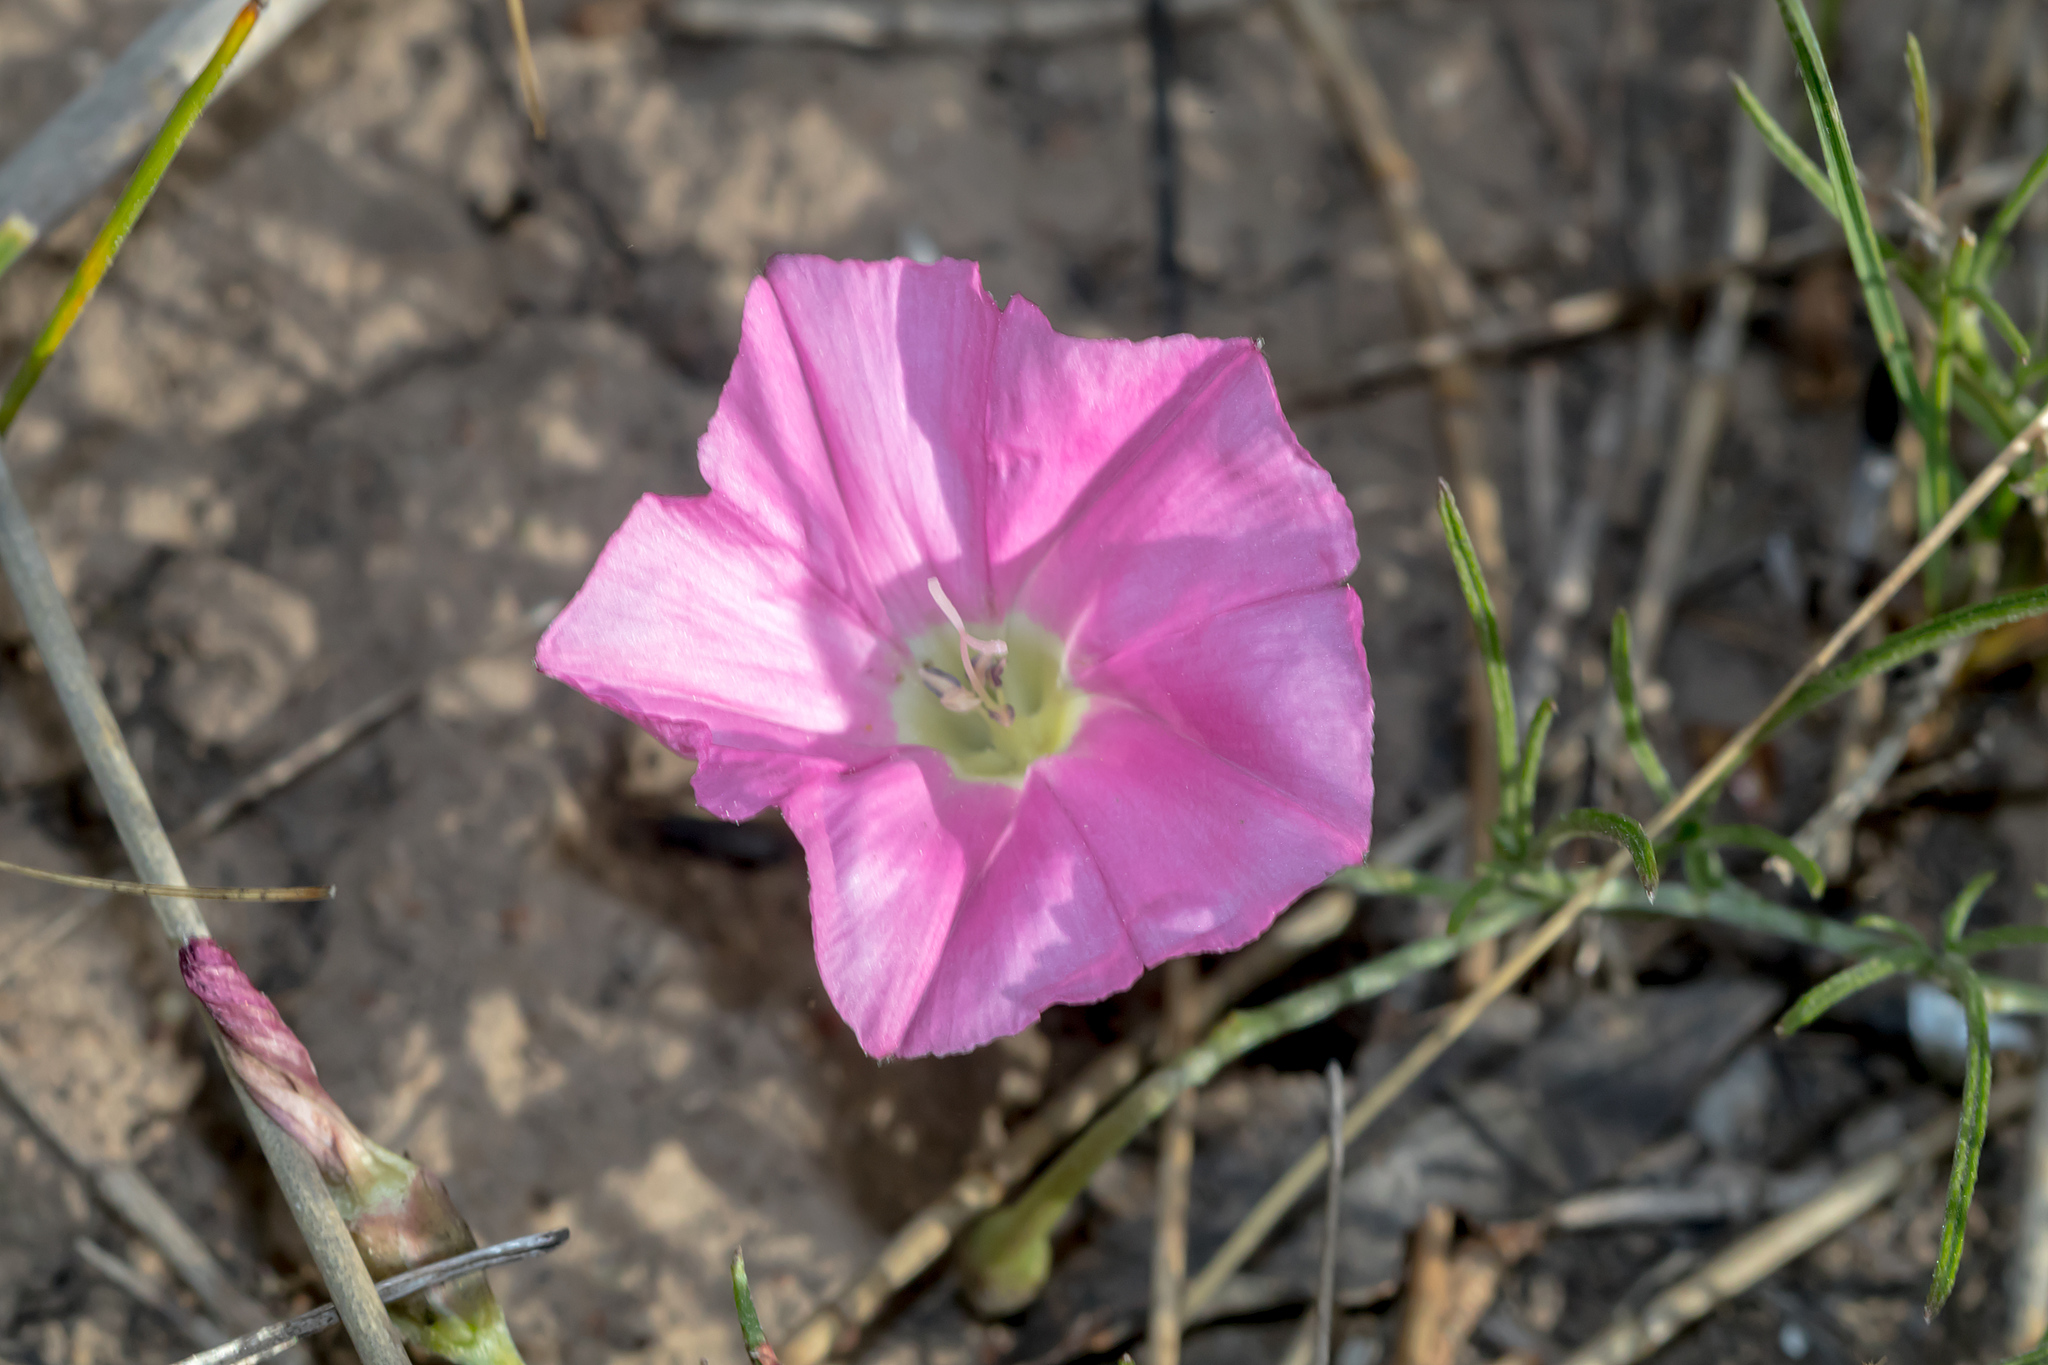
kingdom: Plantae
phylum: Tracheophyta
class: Magnoliopsida
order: Solanales
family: Convolvulaceae
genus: Convolvulus
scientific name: Convolvulus angustissimus
